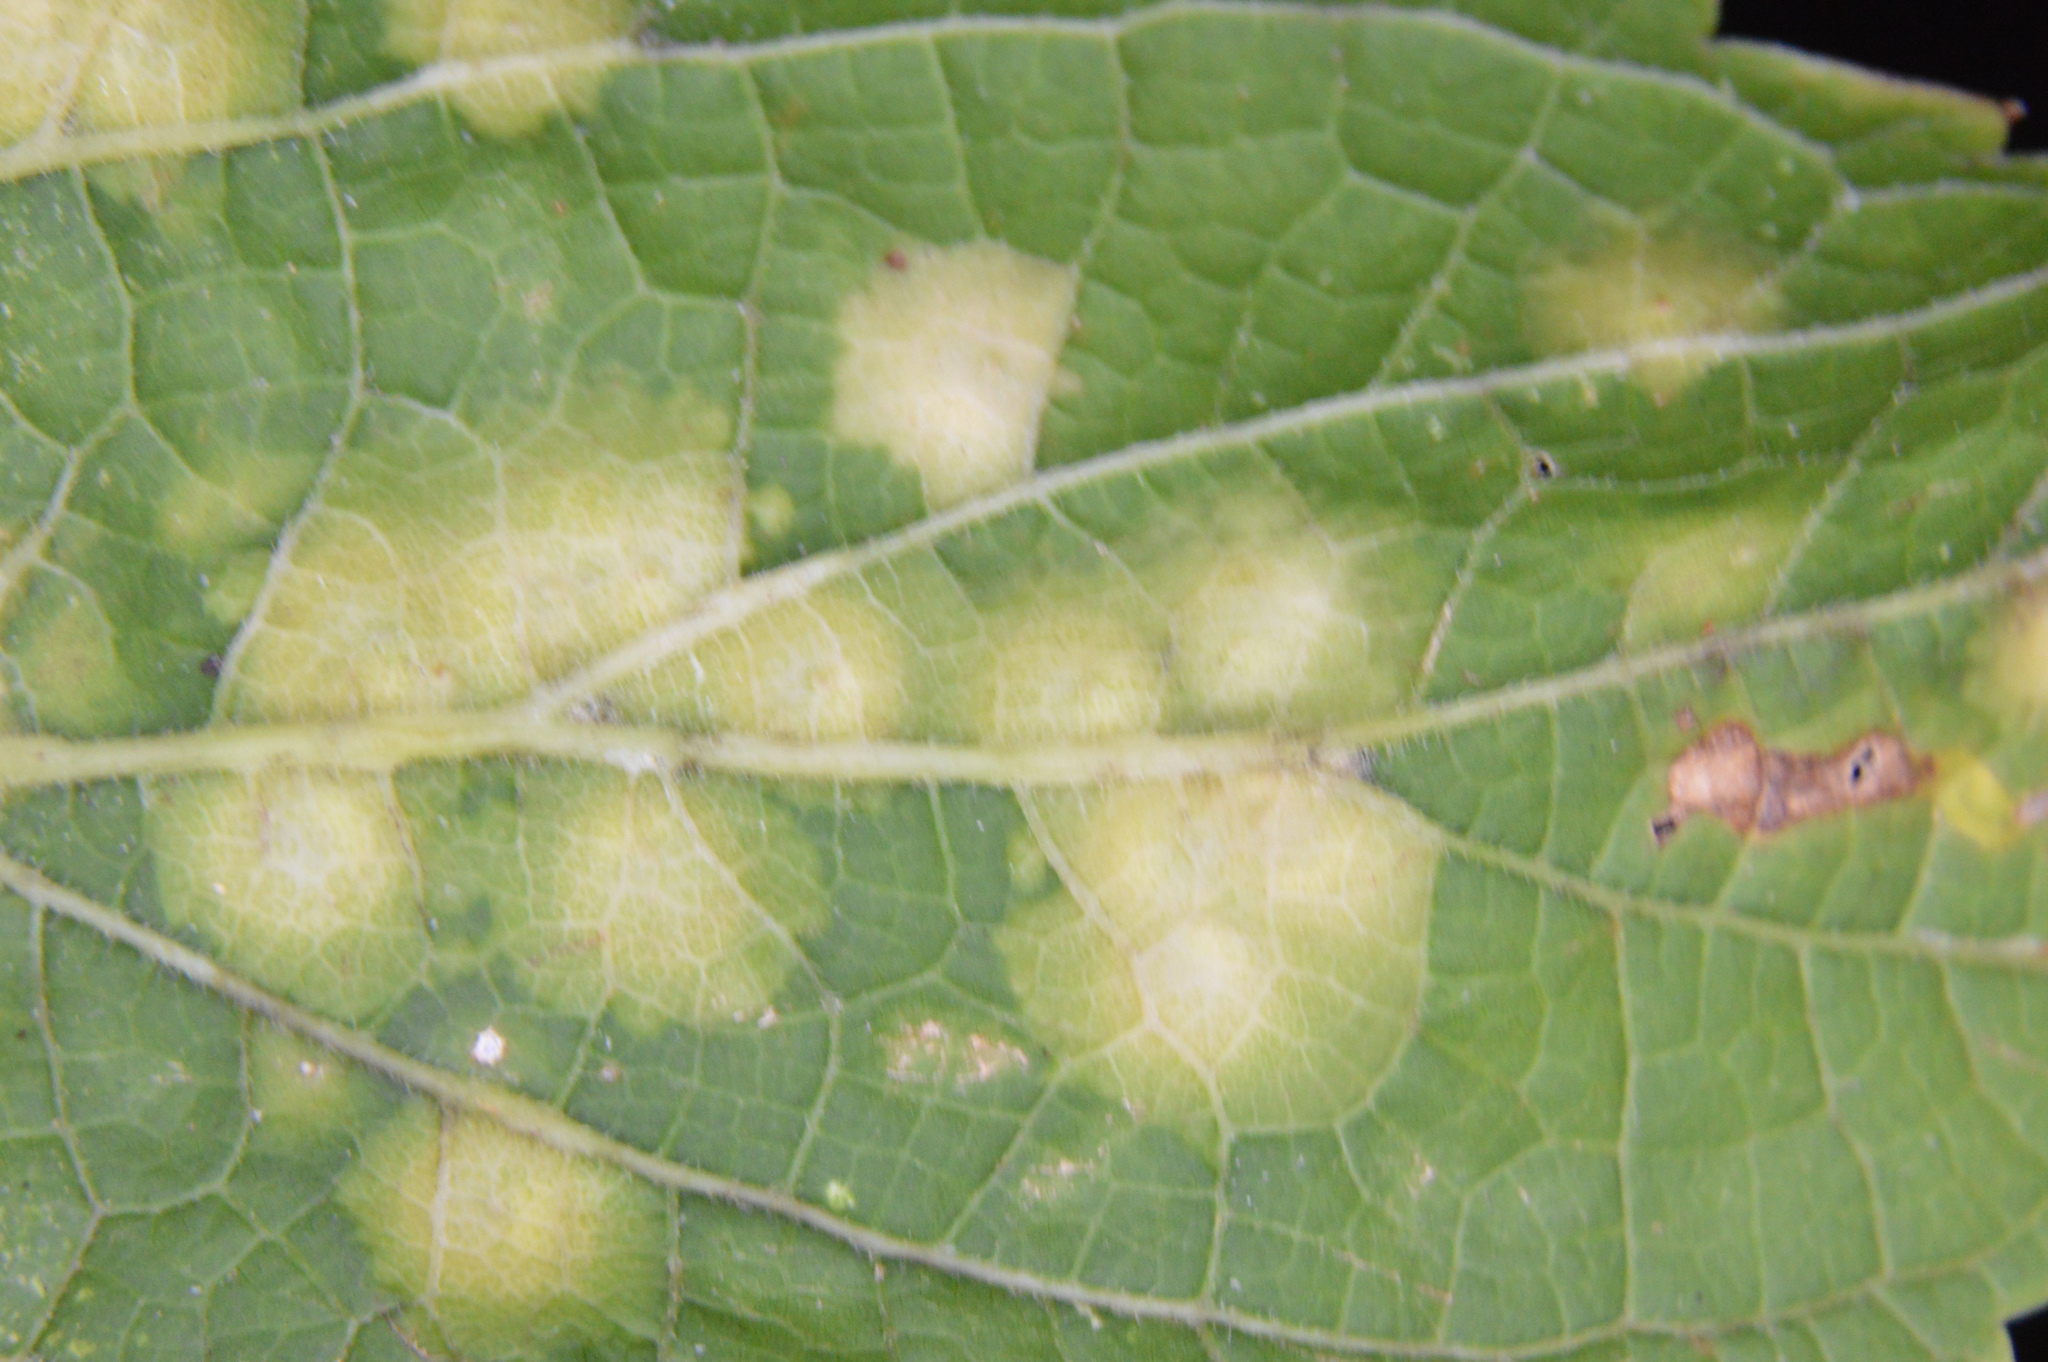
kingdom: Animalia
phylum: Arthropoda
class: Insecta
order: Hemiptera
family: Aphalaridae
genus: Pachypsylla
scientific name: Pachypsylla celtidisvesicula
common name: Hackberry blister gall psyllid
